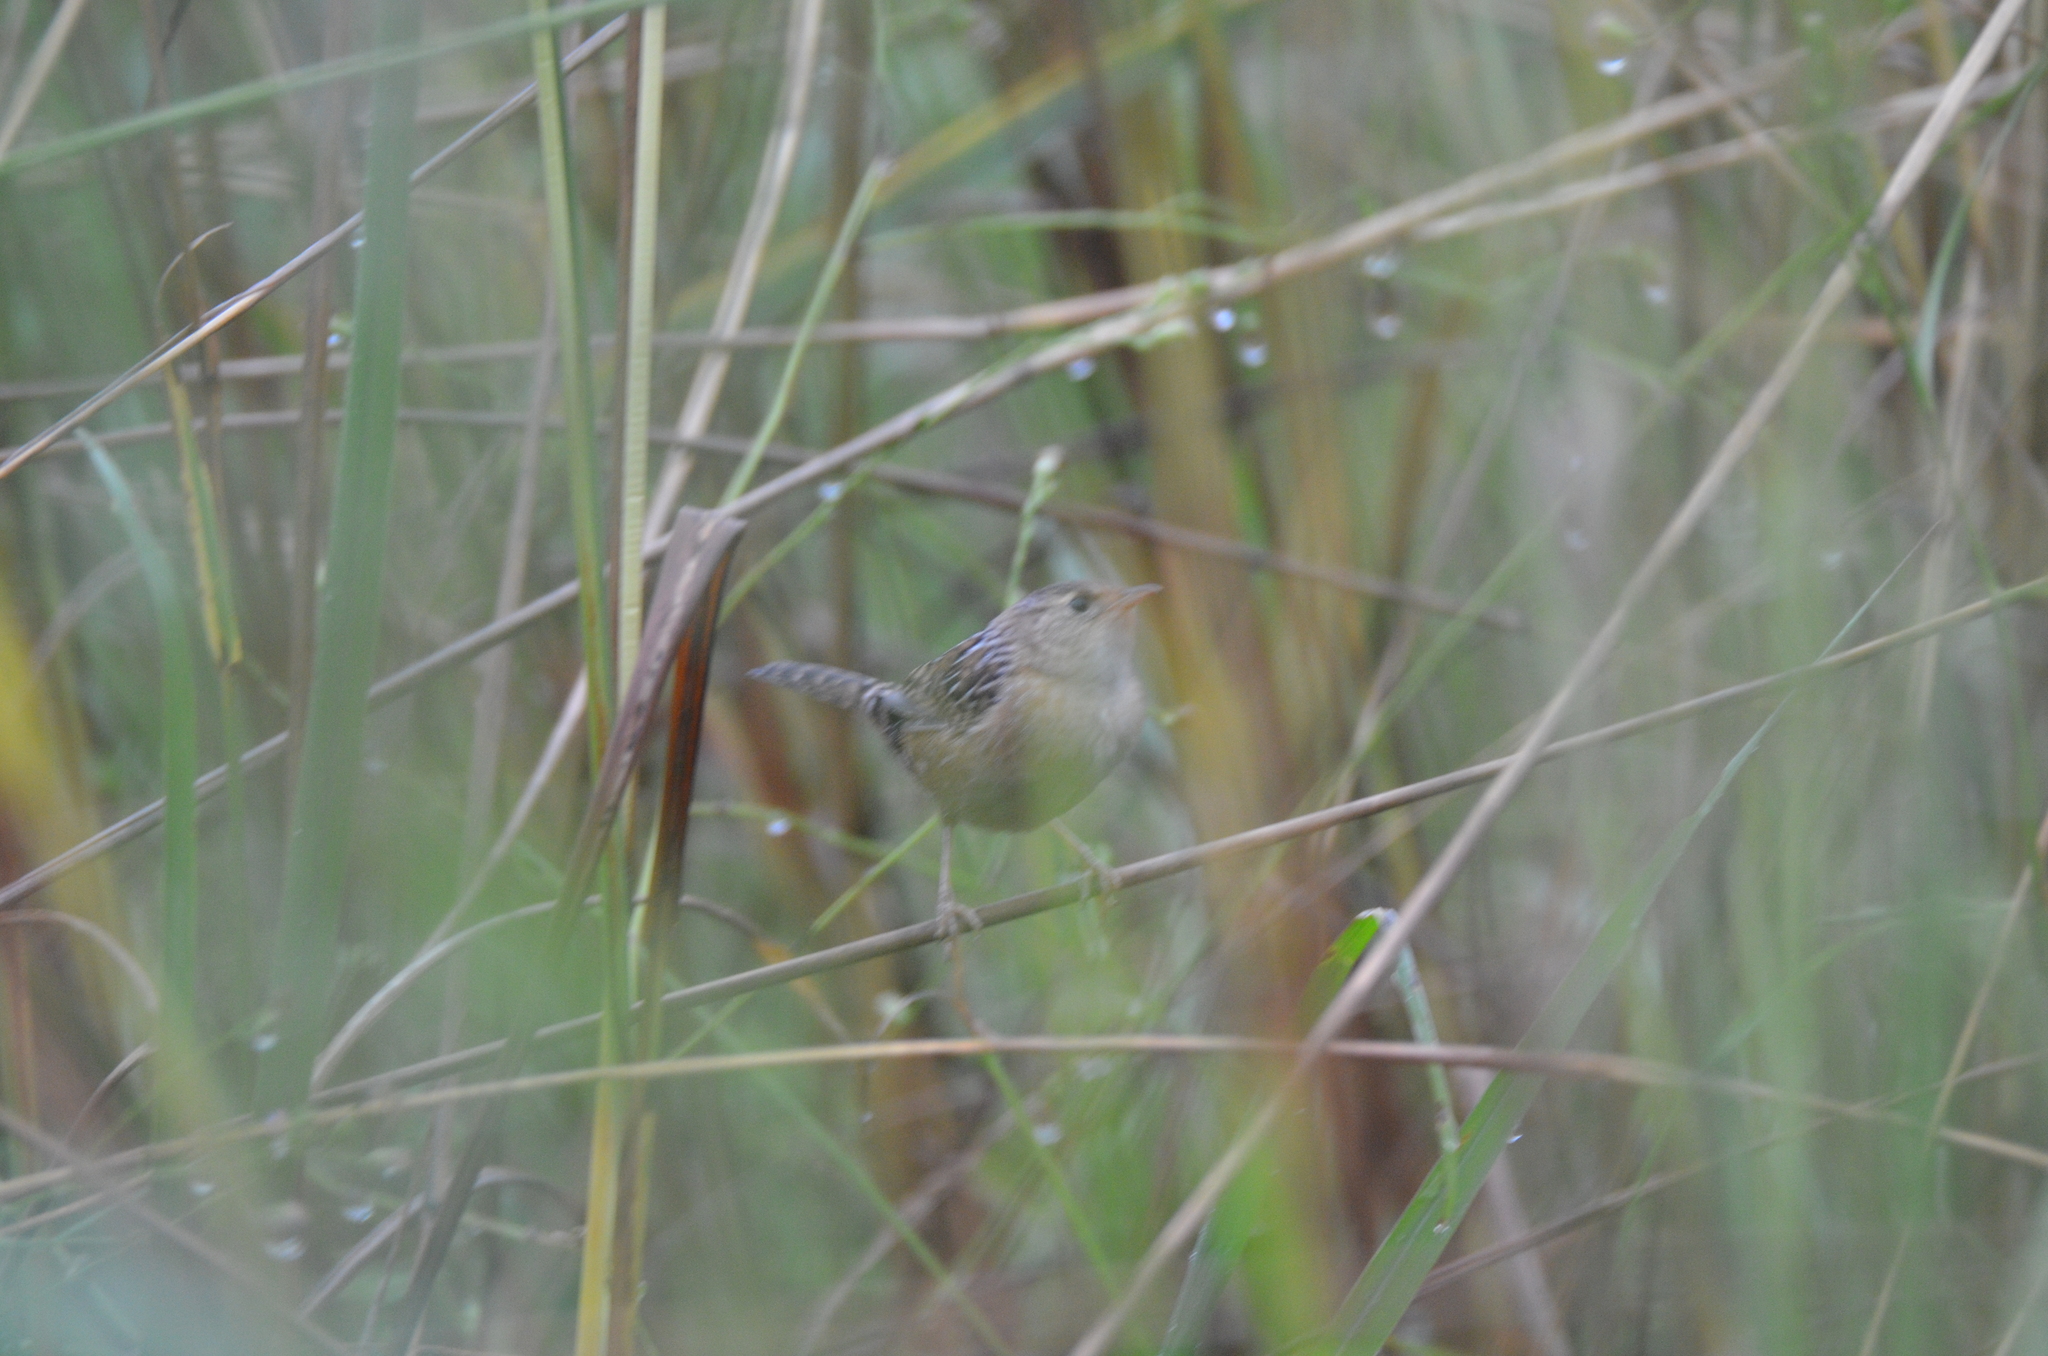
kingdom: Animalia
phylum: Chordata
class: Aves
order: Passeriformes
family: Troglodytidae
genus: Cistothorus
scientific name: Cistothorus platensis
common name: Sedge wren
